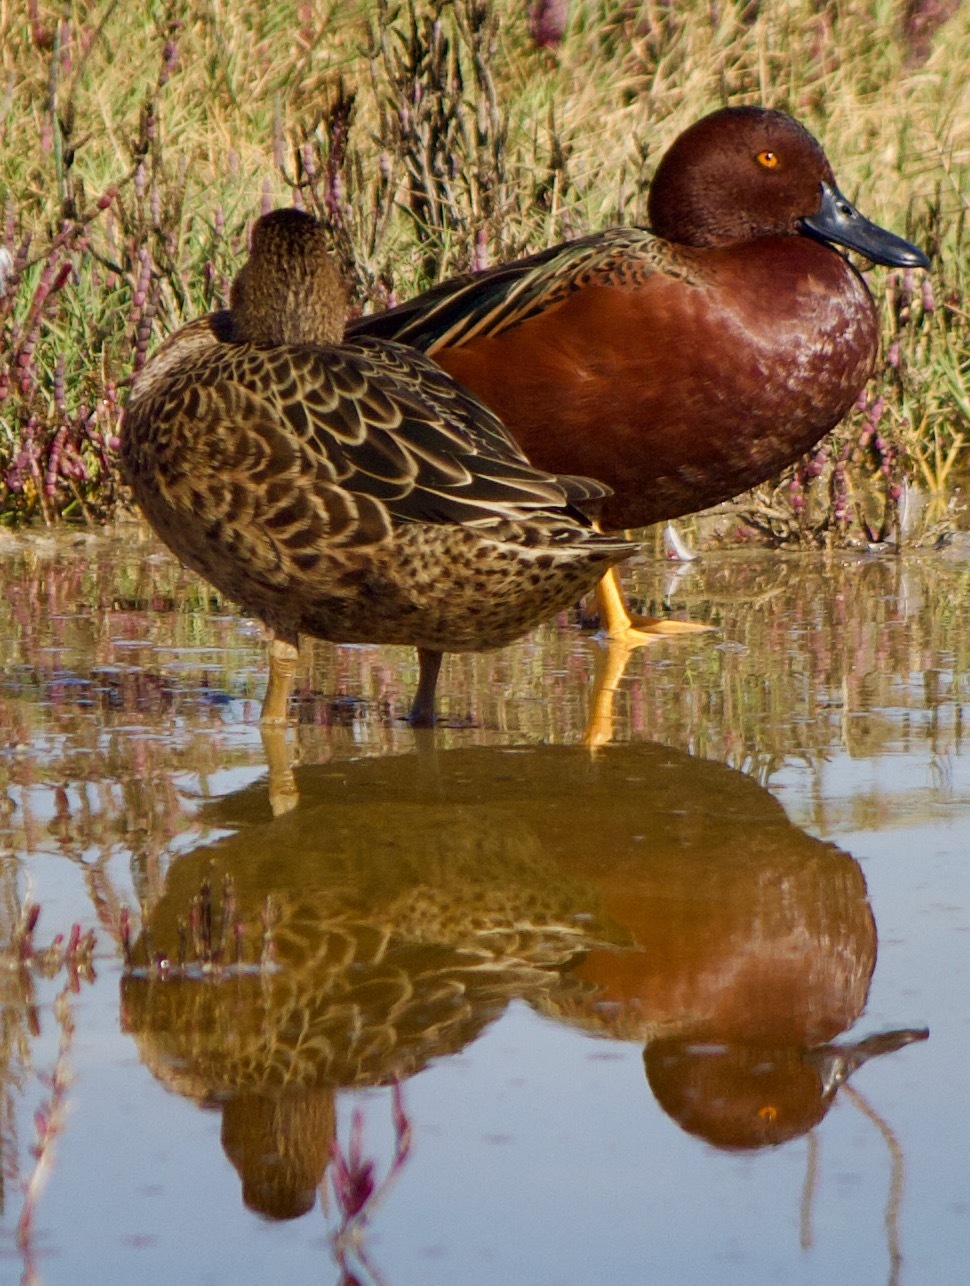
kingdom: Animalia
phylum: Chordata
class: Aves
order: Anseriformes
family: Anatidae
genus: Spatula
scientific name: Spatula cyanoptera
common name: Cinnamon teal
